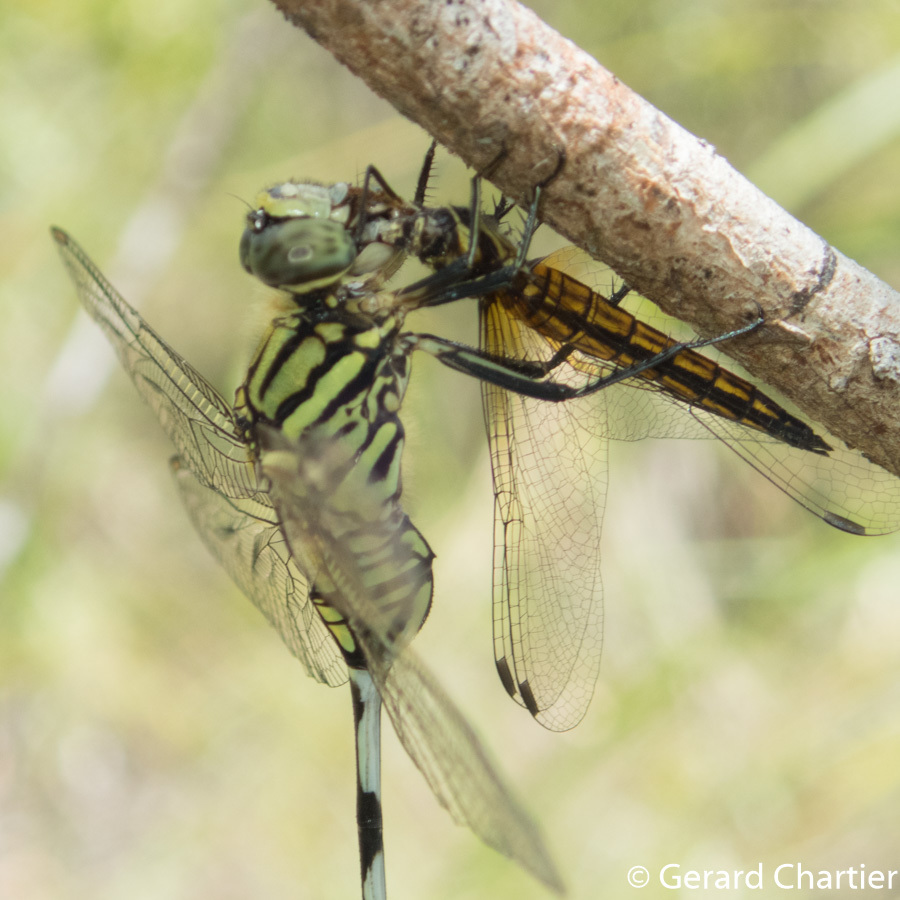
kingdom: Animalia
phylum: Arthropoda
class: Insecta
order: Odonata
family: Libellulidae
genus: Lyriothemis
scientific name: Lyriothemis mortoni
